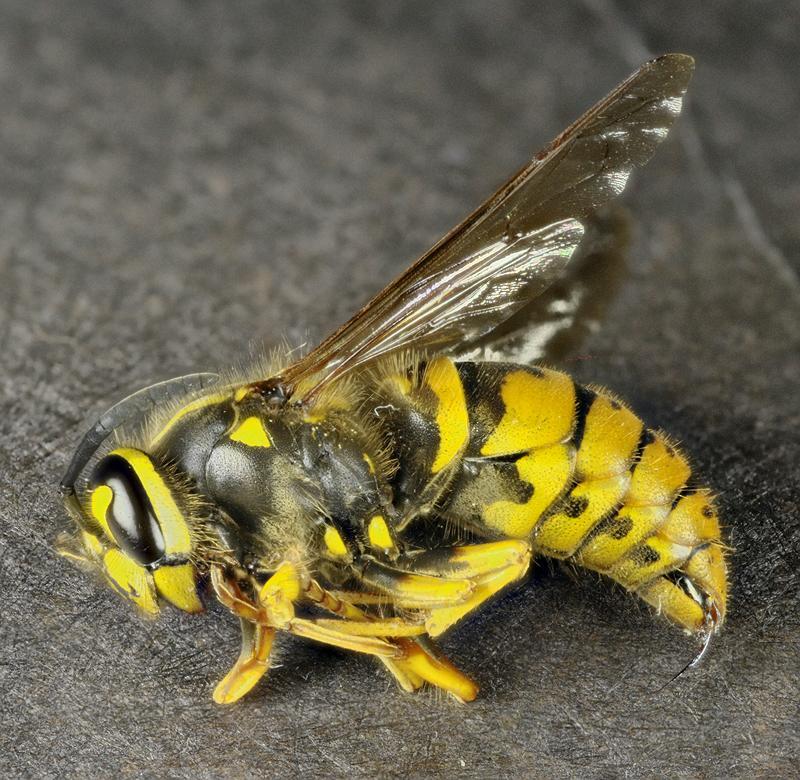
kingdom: Animalia
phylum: Arthropoda
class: Insecta
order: Hymenoptera
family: Vespidae
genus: Vespula
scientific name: Vespula maculifrons
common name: Eastern yellowjacket
